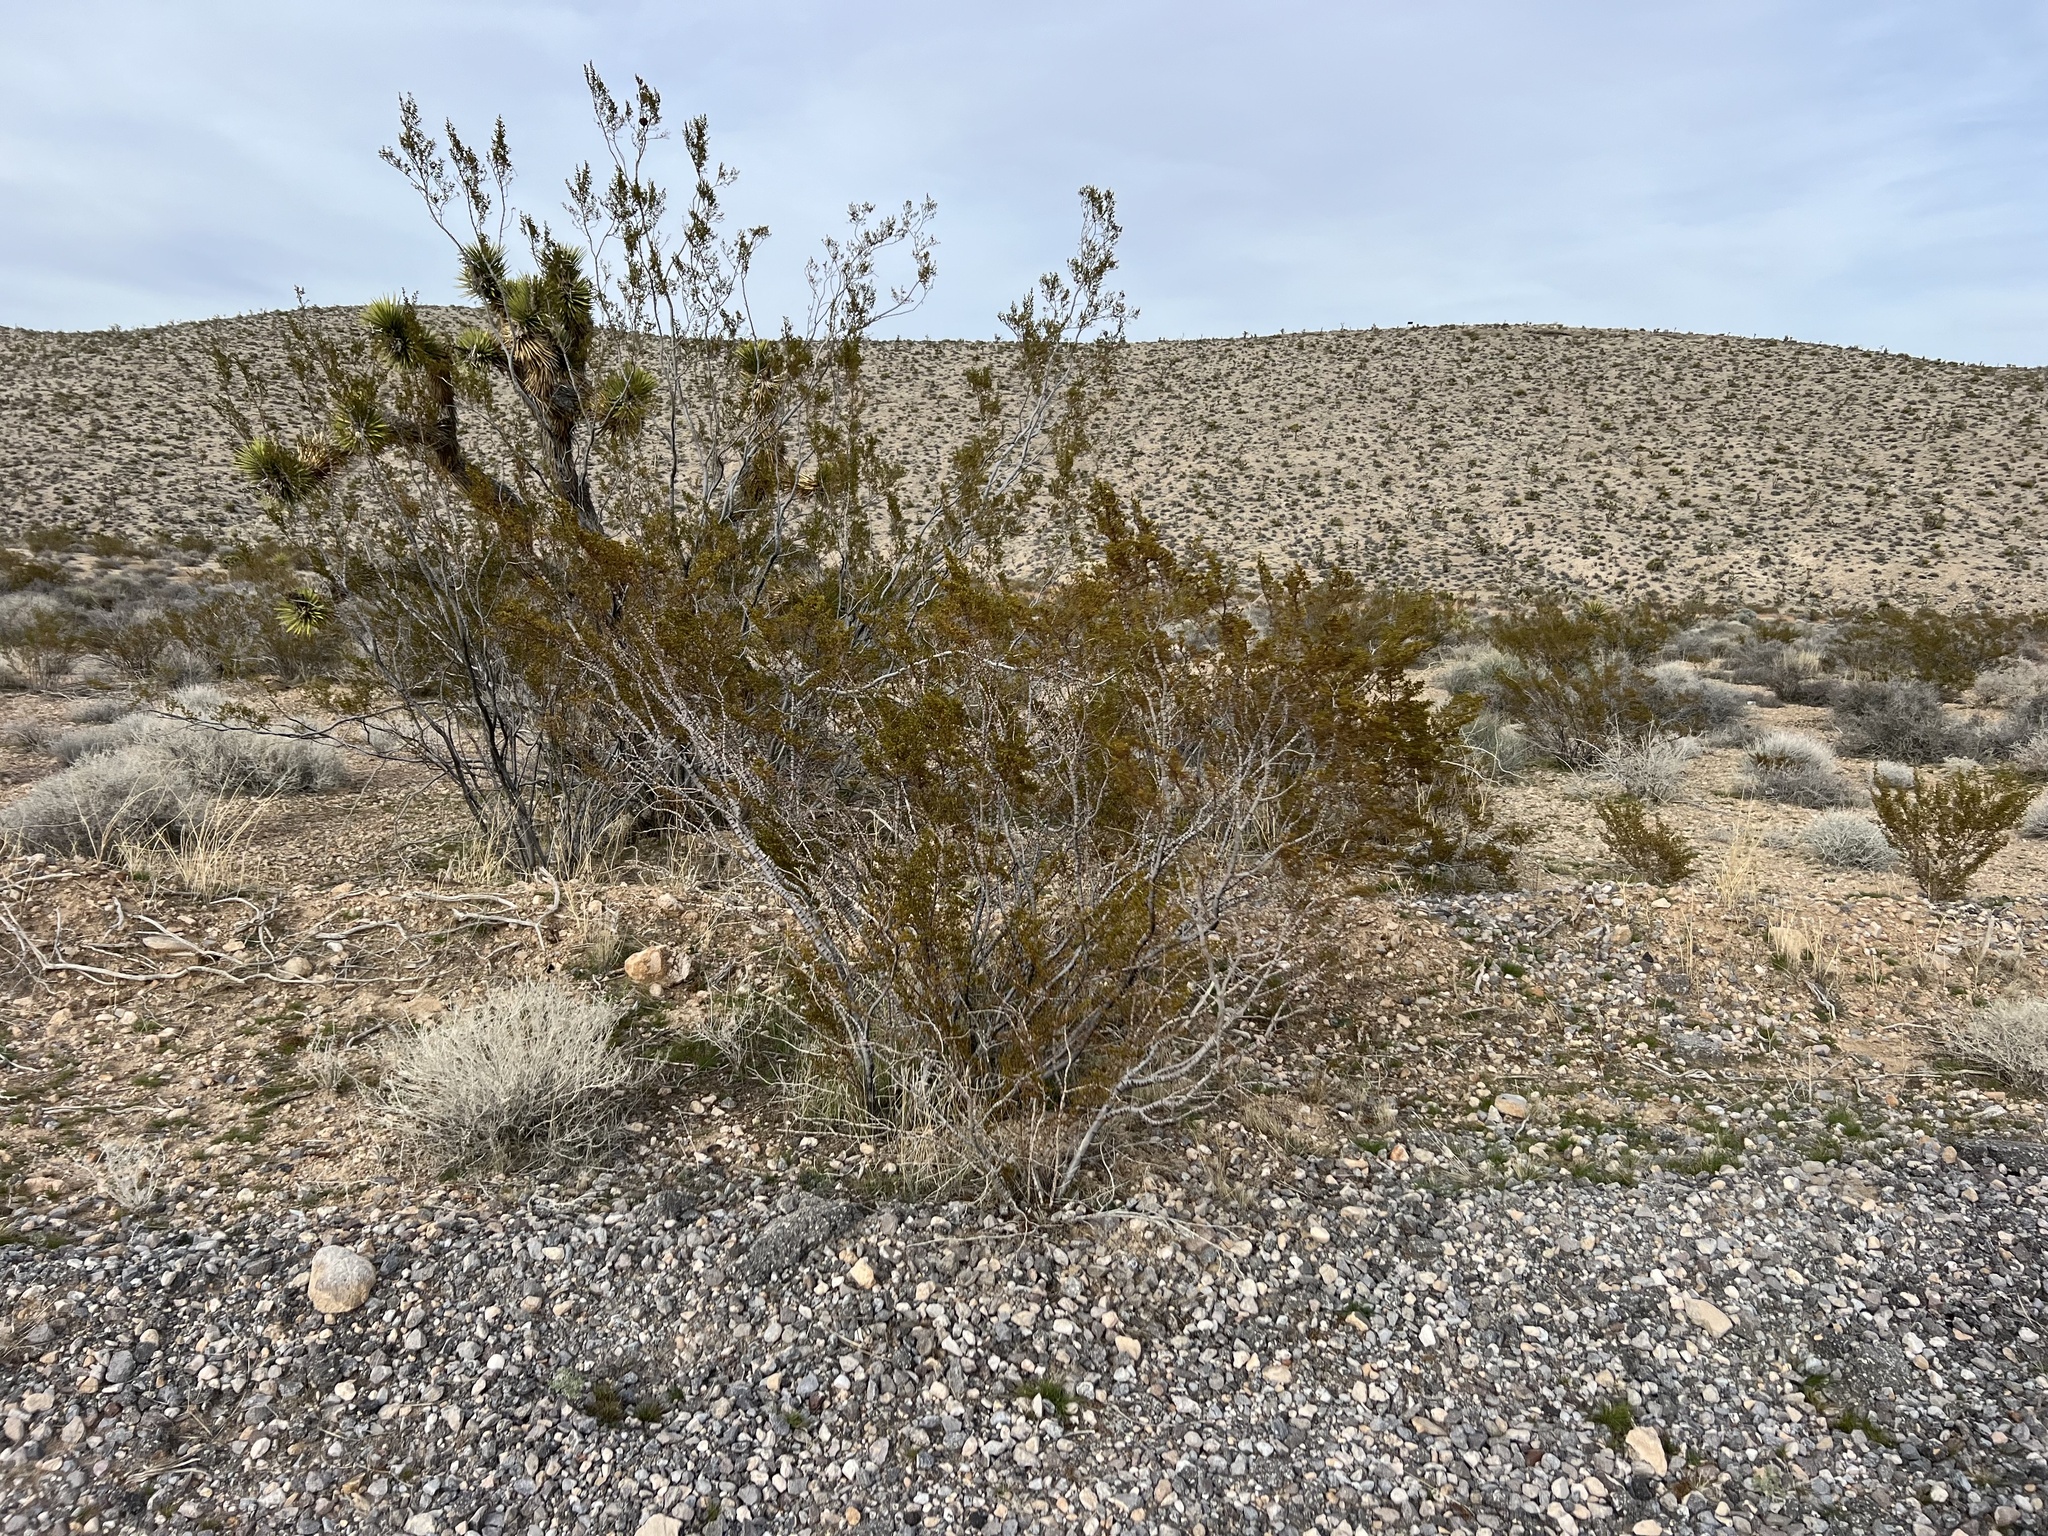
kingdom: Plantae
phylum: Tracheophyta
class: Magnoliopsida
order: Zygophyllales
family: Zygophyllaceae
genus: Larrea
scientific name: Larrea tridentata
